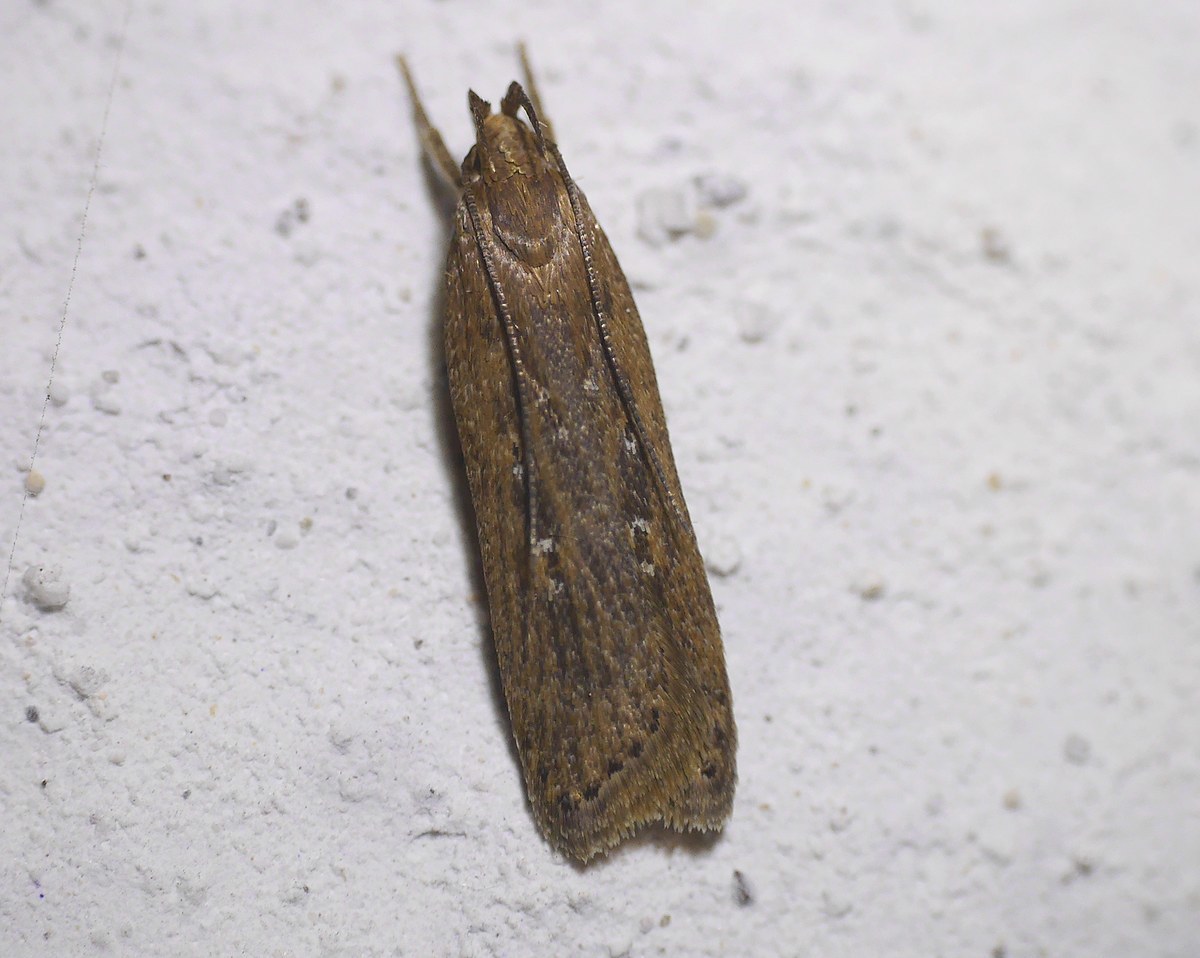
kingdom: Animalia
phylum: Arthropoda
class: Insecta
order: Lepidoptera
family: Gelechiidae
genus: Helcystogramma
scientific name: Helcystogramma triannulella
